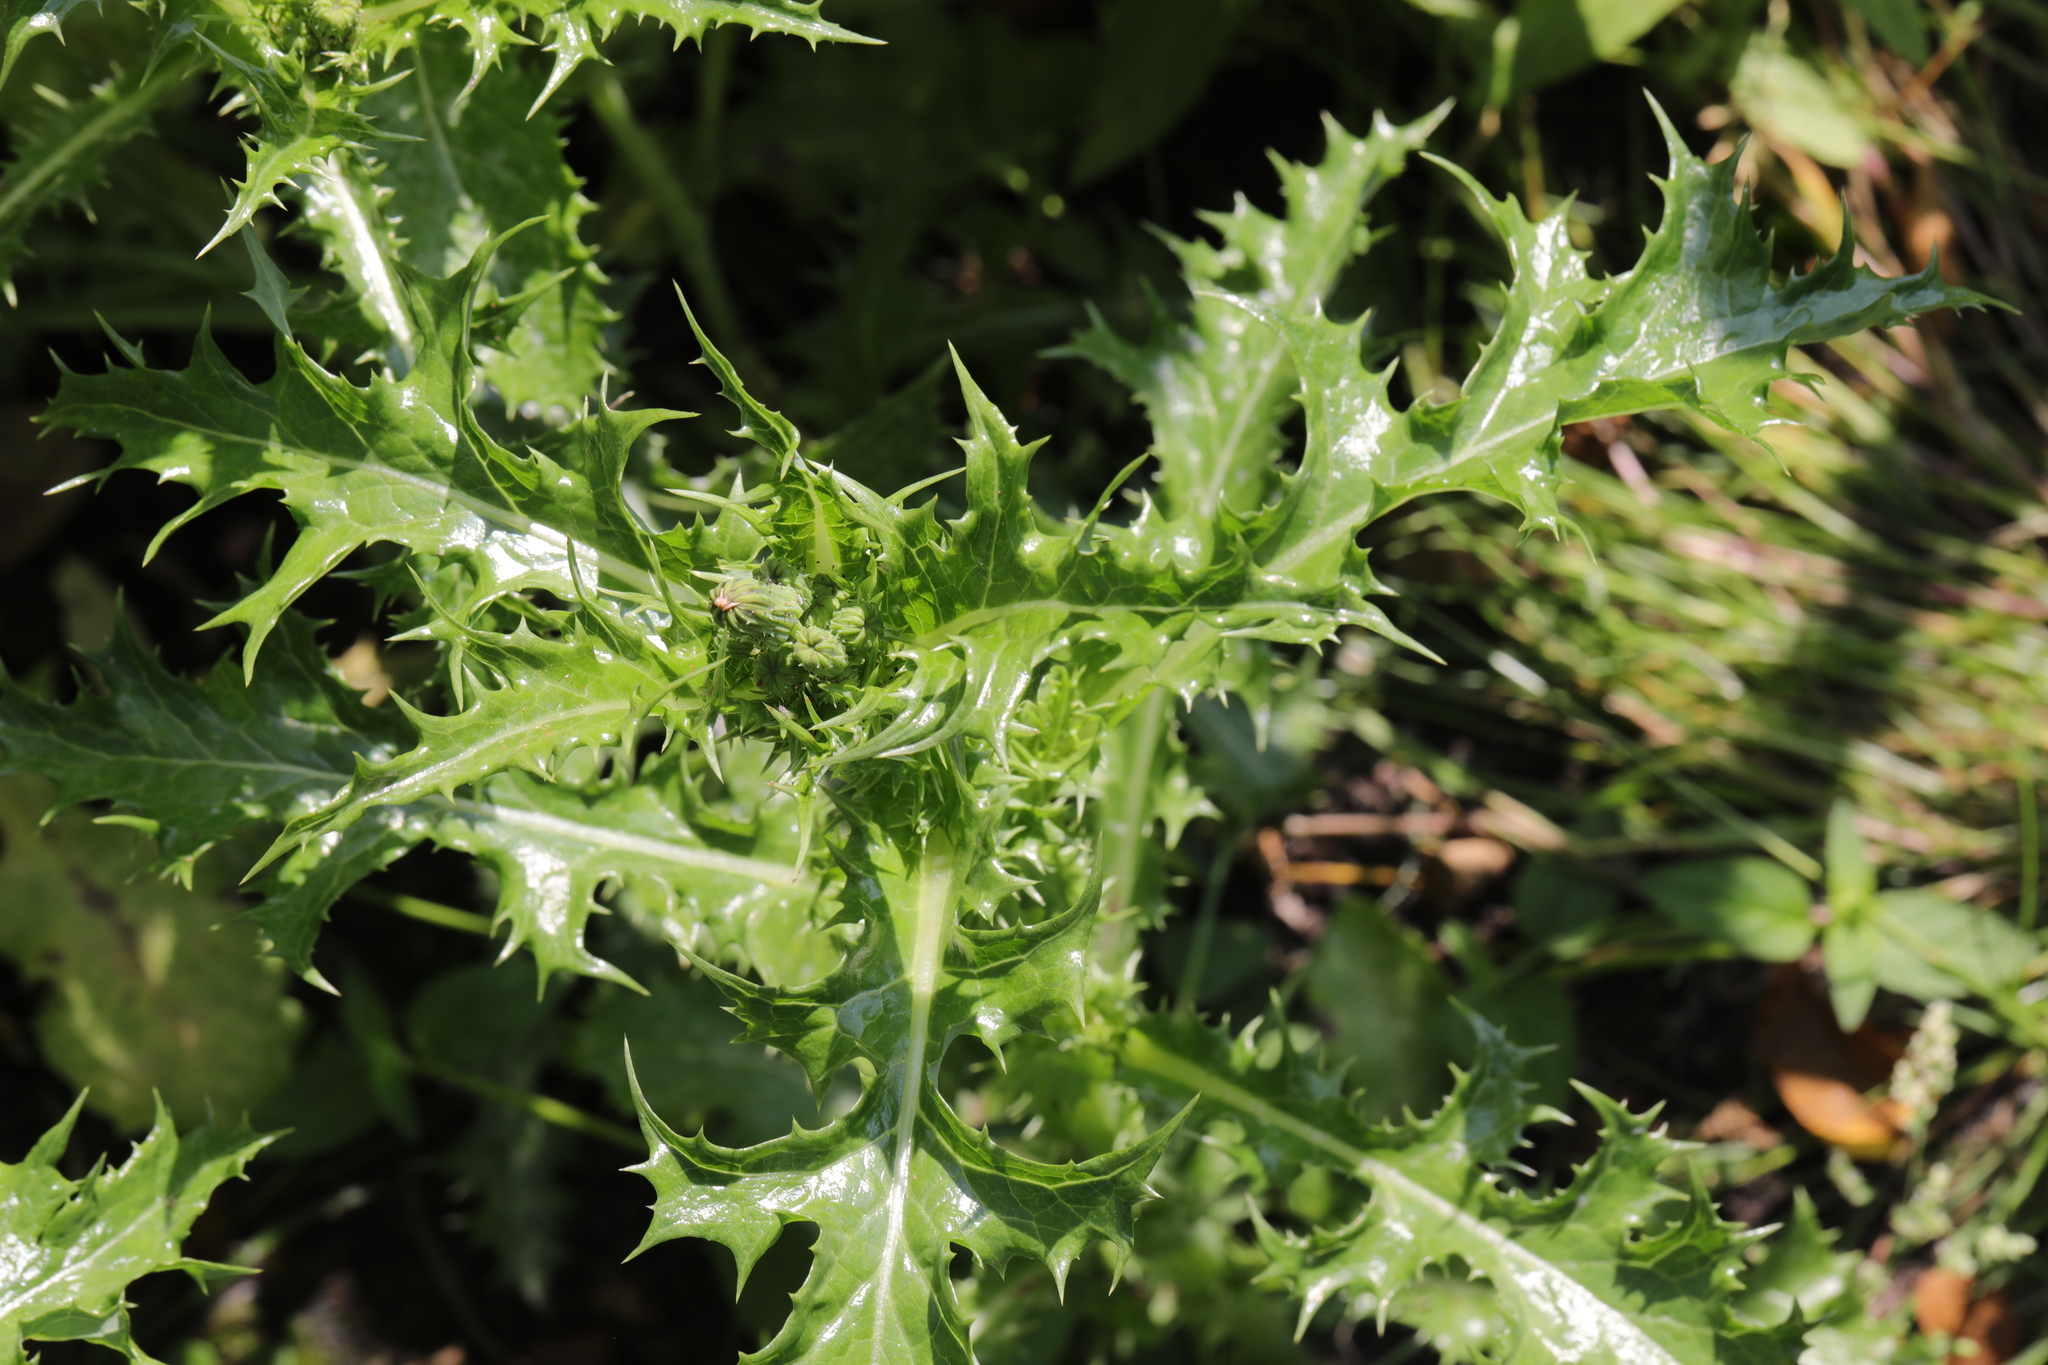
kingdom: Plantae
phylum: Tracheophyta
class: Magnoliopsida
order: Asterales
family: Asteraceae
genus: Sonchus
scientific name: Sonchus asper
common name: Prickly sow-thistle
